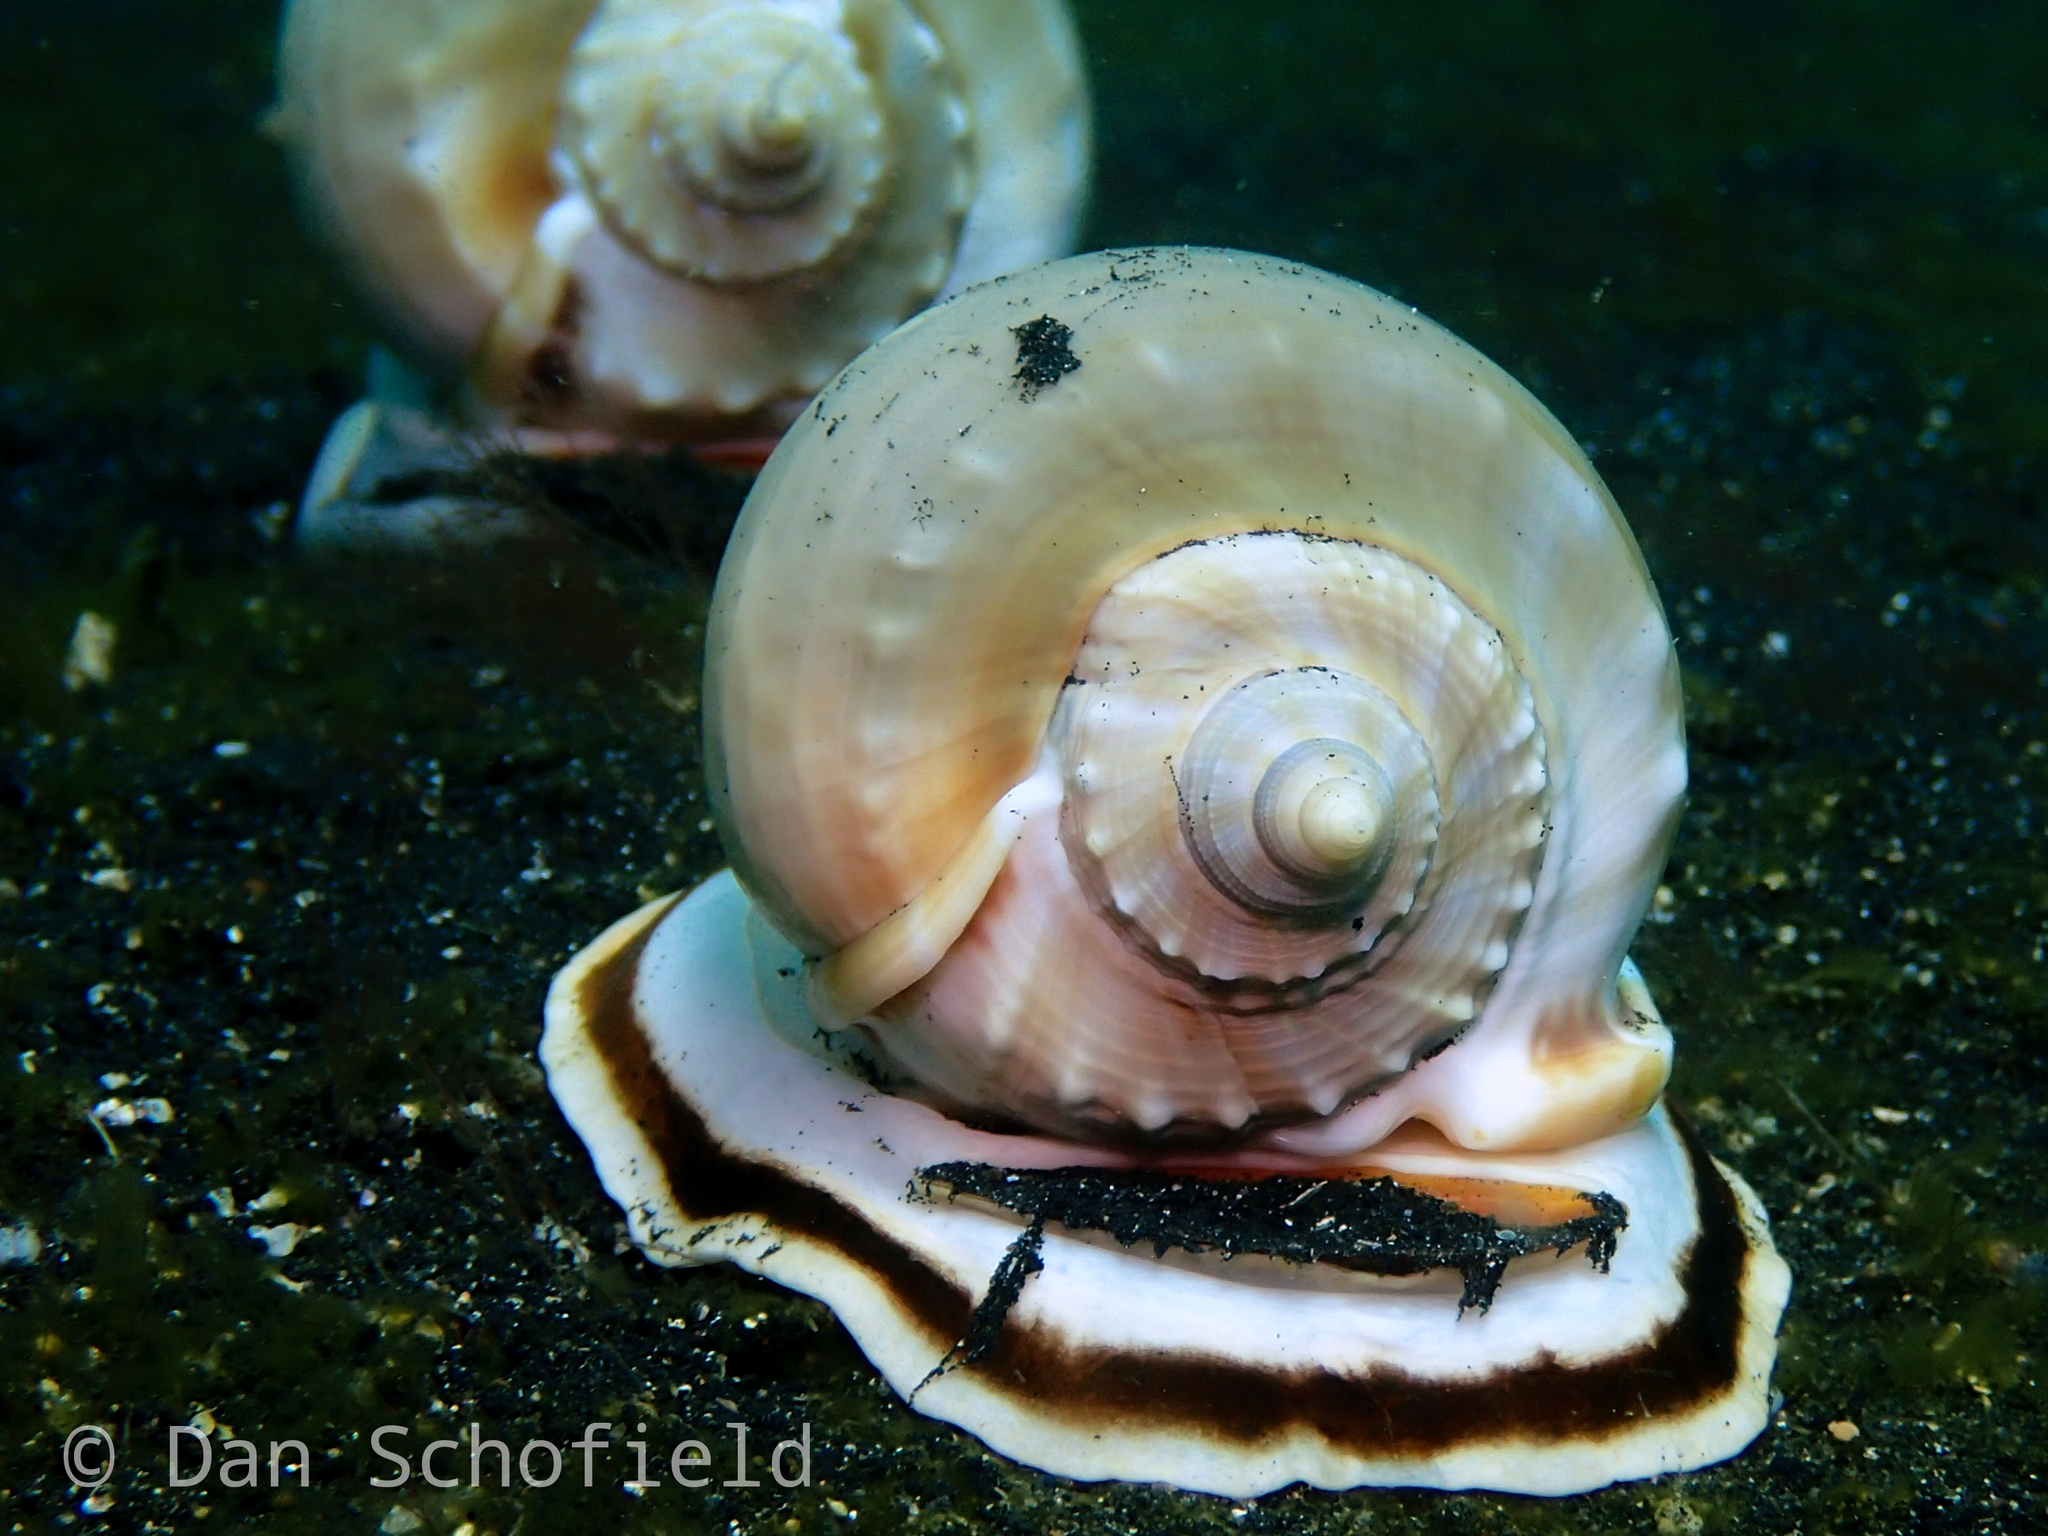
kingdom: Animalia
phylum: Mollusca
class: Gastropoda
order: Littorinimorpha
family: Cassidae
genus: Phalium
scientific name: Phalium glaucum
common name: Grey bonnet
